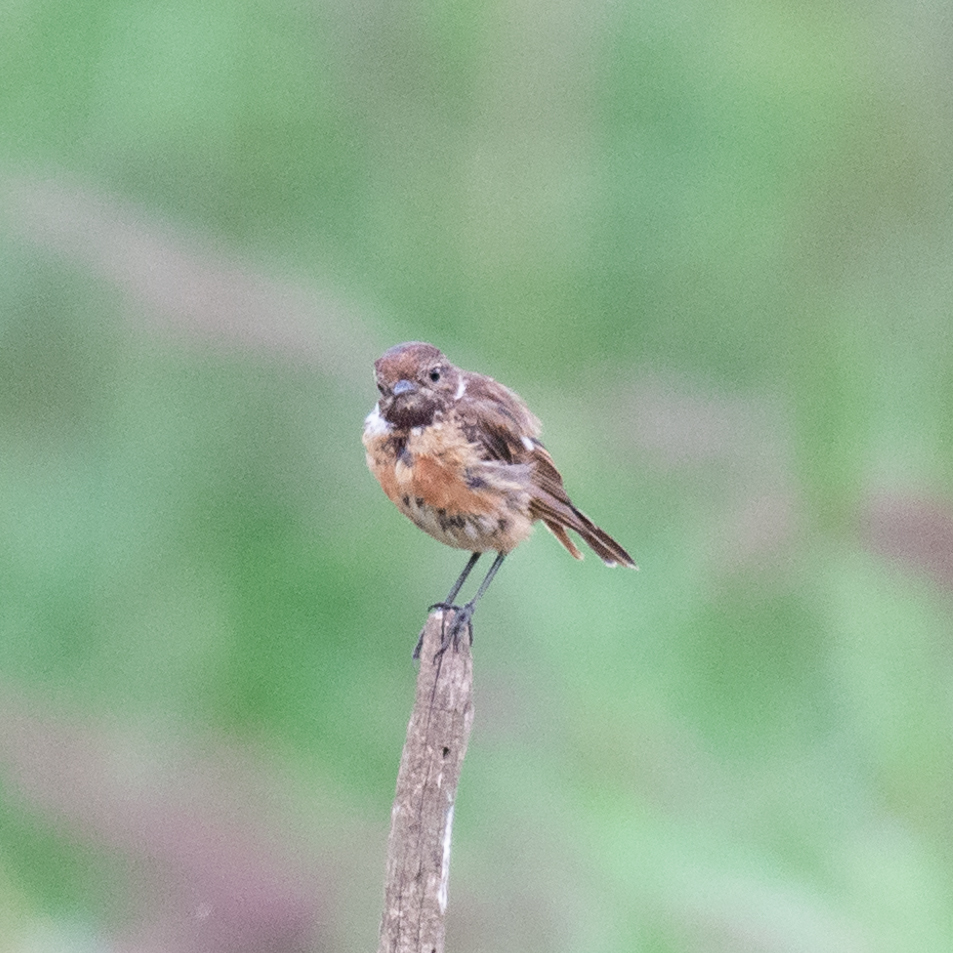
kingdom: Animalia
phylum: Chordata
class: Aves
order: Passeriformes
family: Muscicapidae
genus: Saxicola
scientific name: Saxicola rubicola
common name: European stonechat
